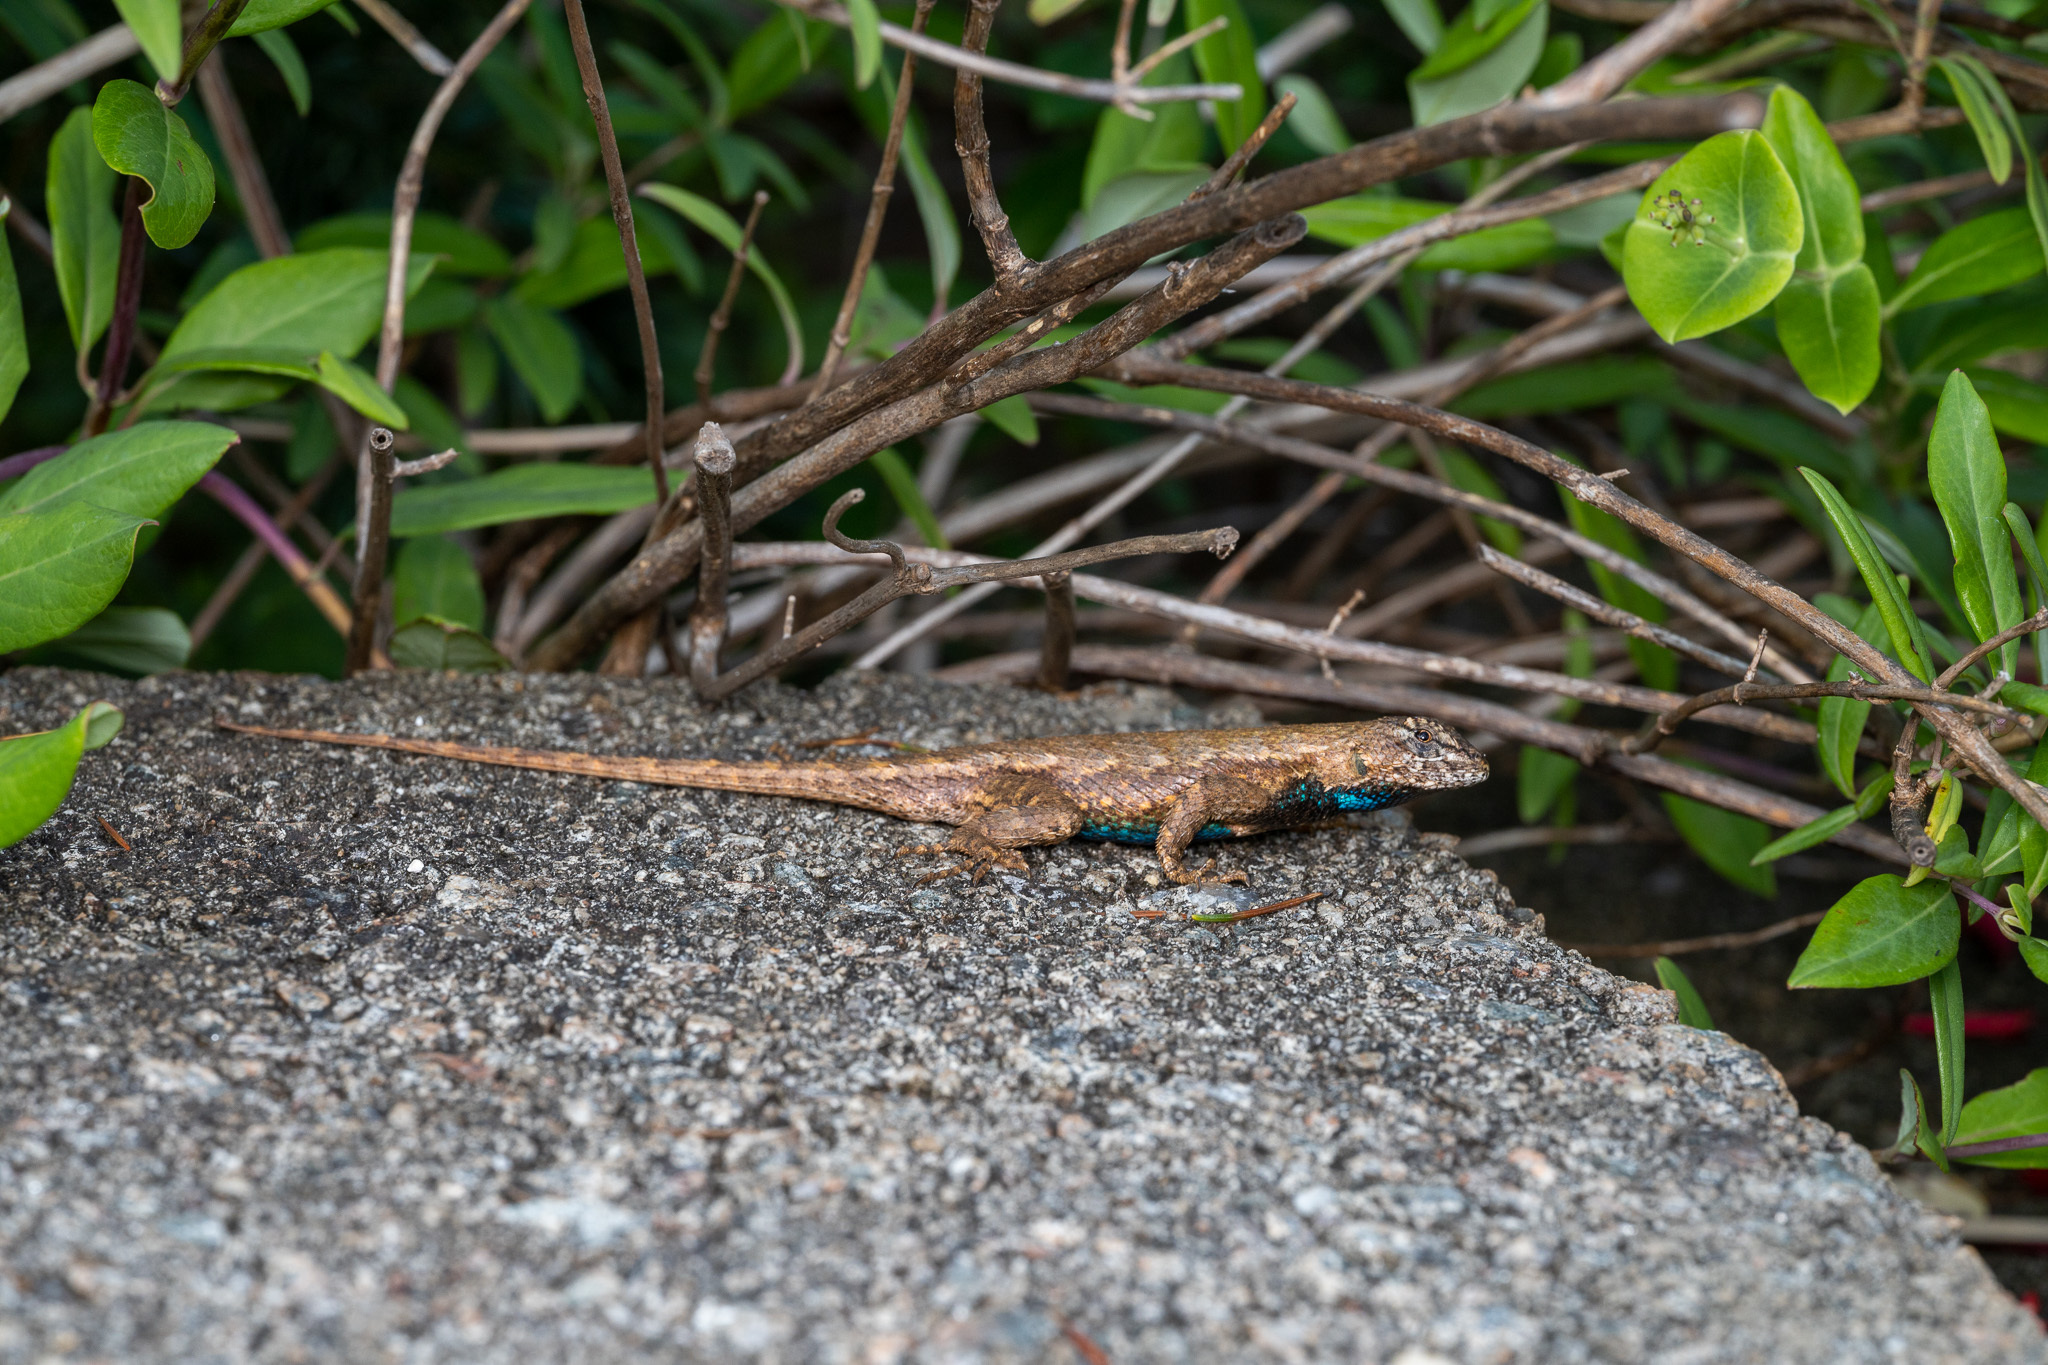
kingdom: Animalia
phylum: Chordata
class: Squamata
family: Phrynosomatidae
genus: Sceloporus
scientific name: Sceloporus undulatus
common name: Eastern fence lizard
